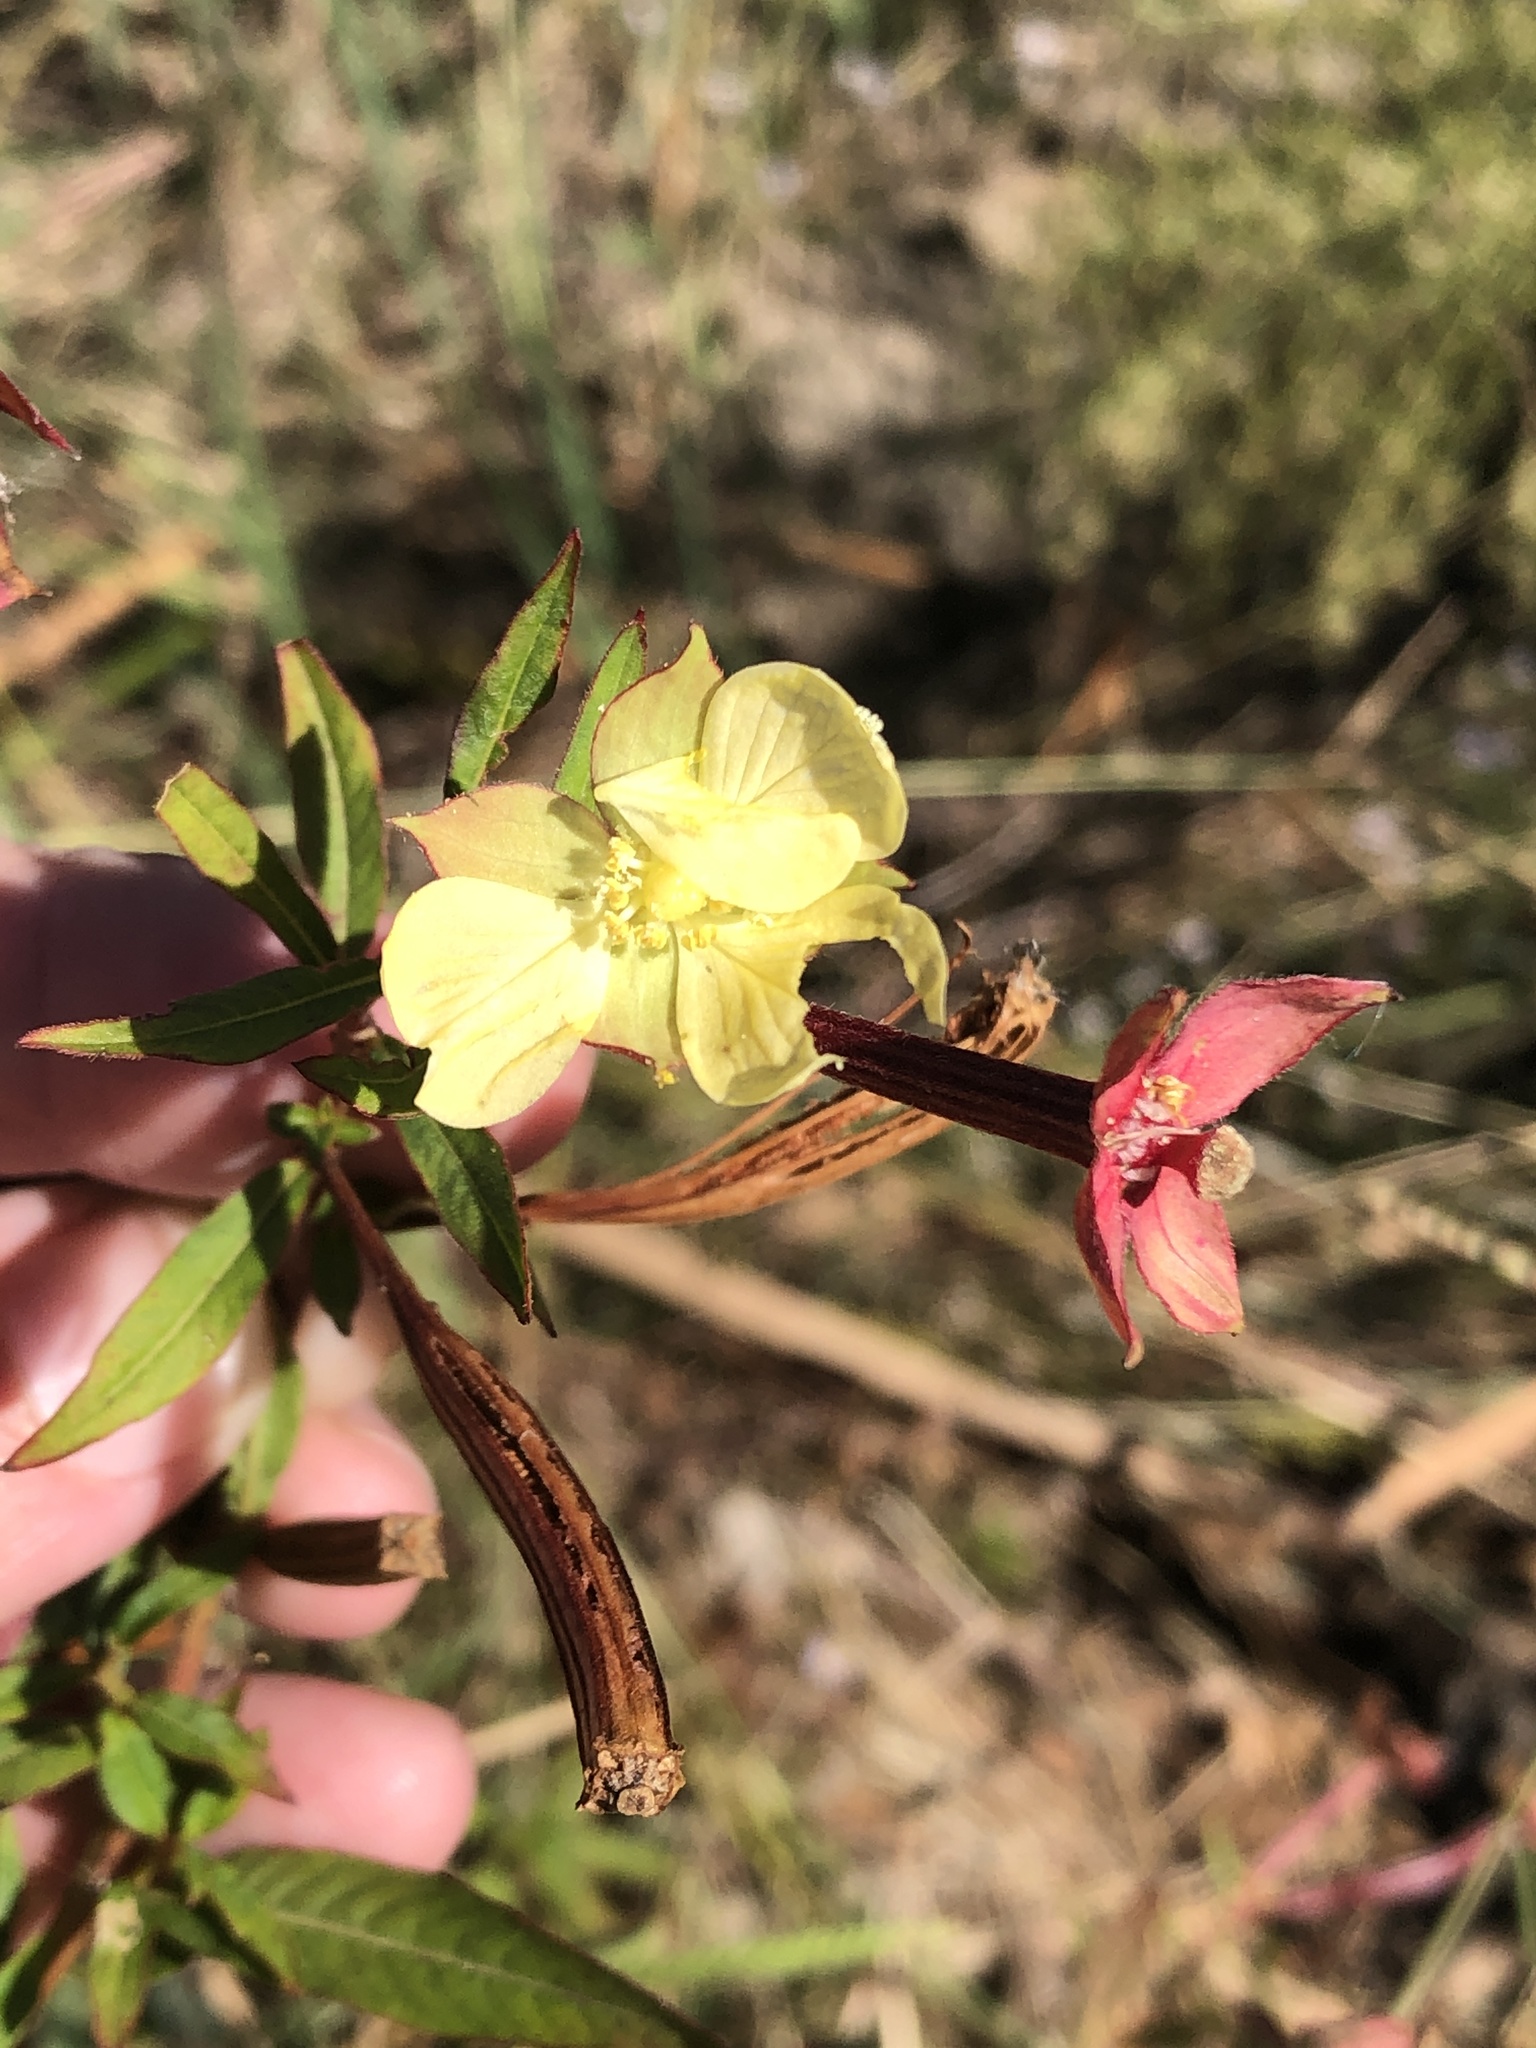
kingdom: Plantae
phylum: Tracheophyta
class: Magnoliopsida
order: Myrtales
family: Onagraceae
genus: Ludwigia
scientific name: Ludwigia octovalvis
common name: Water-primrose
